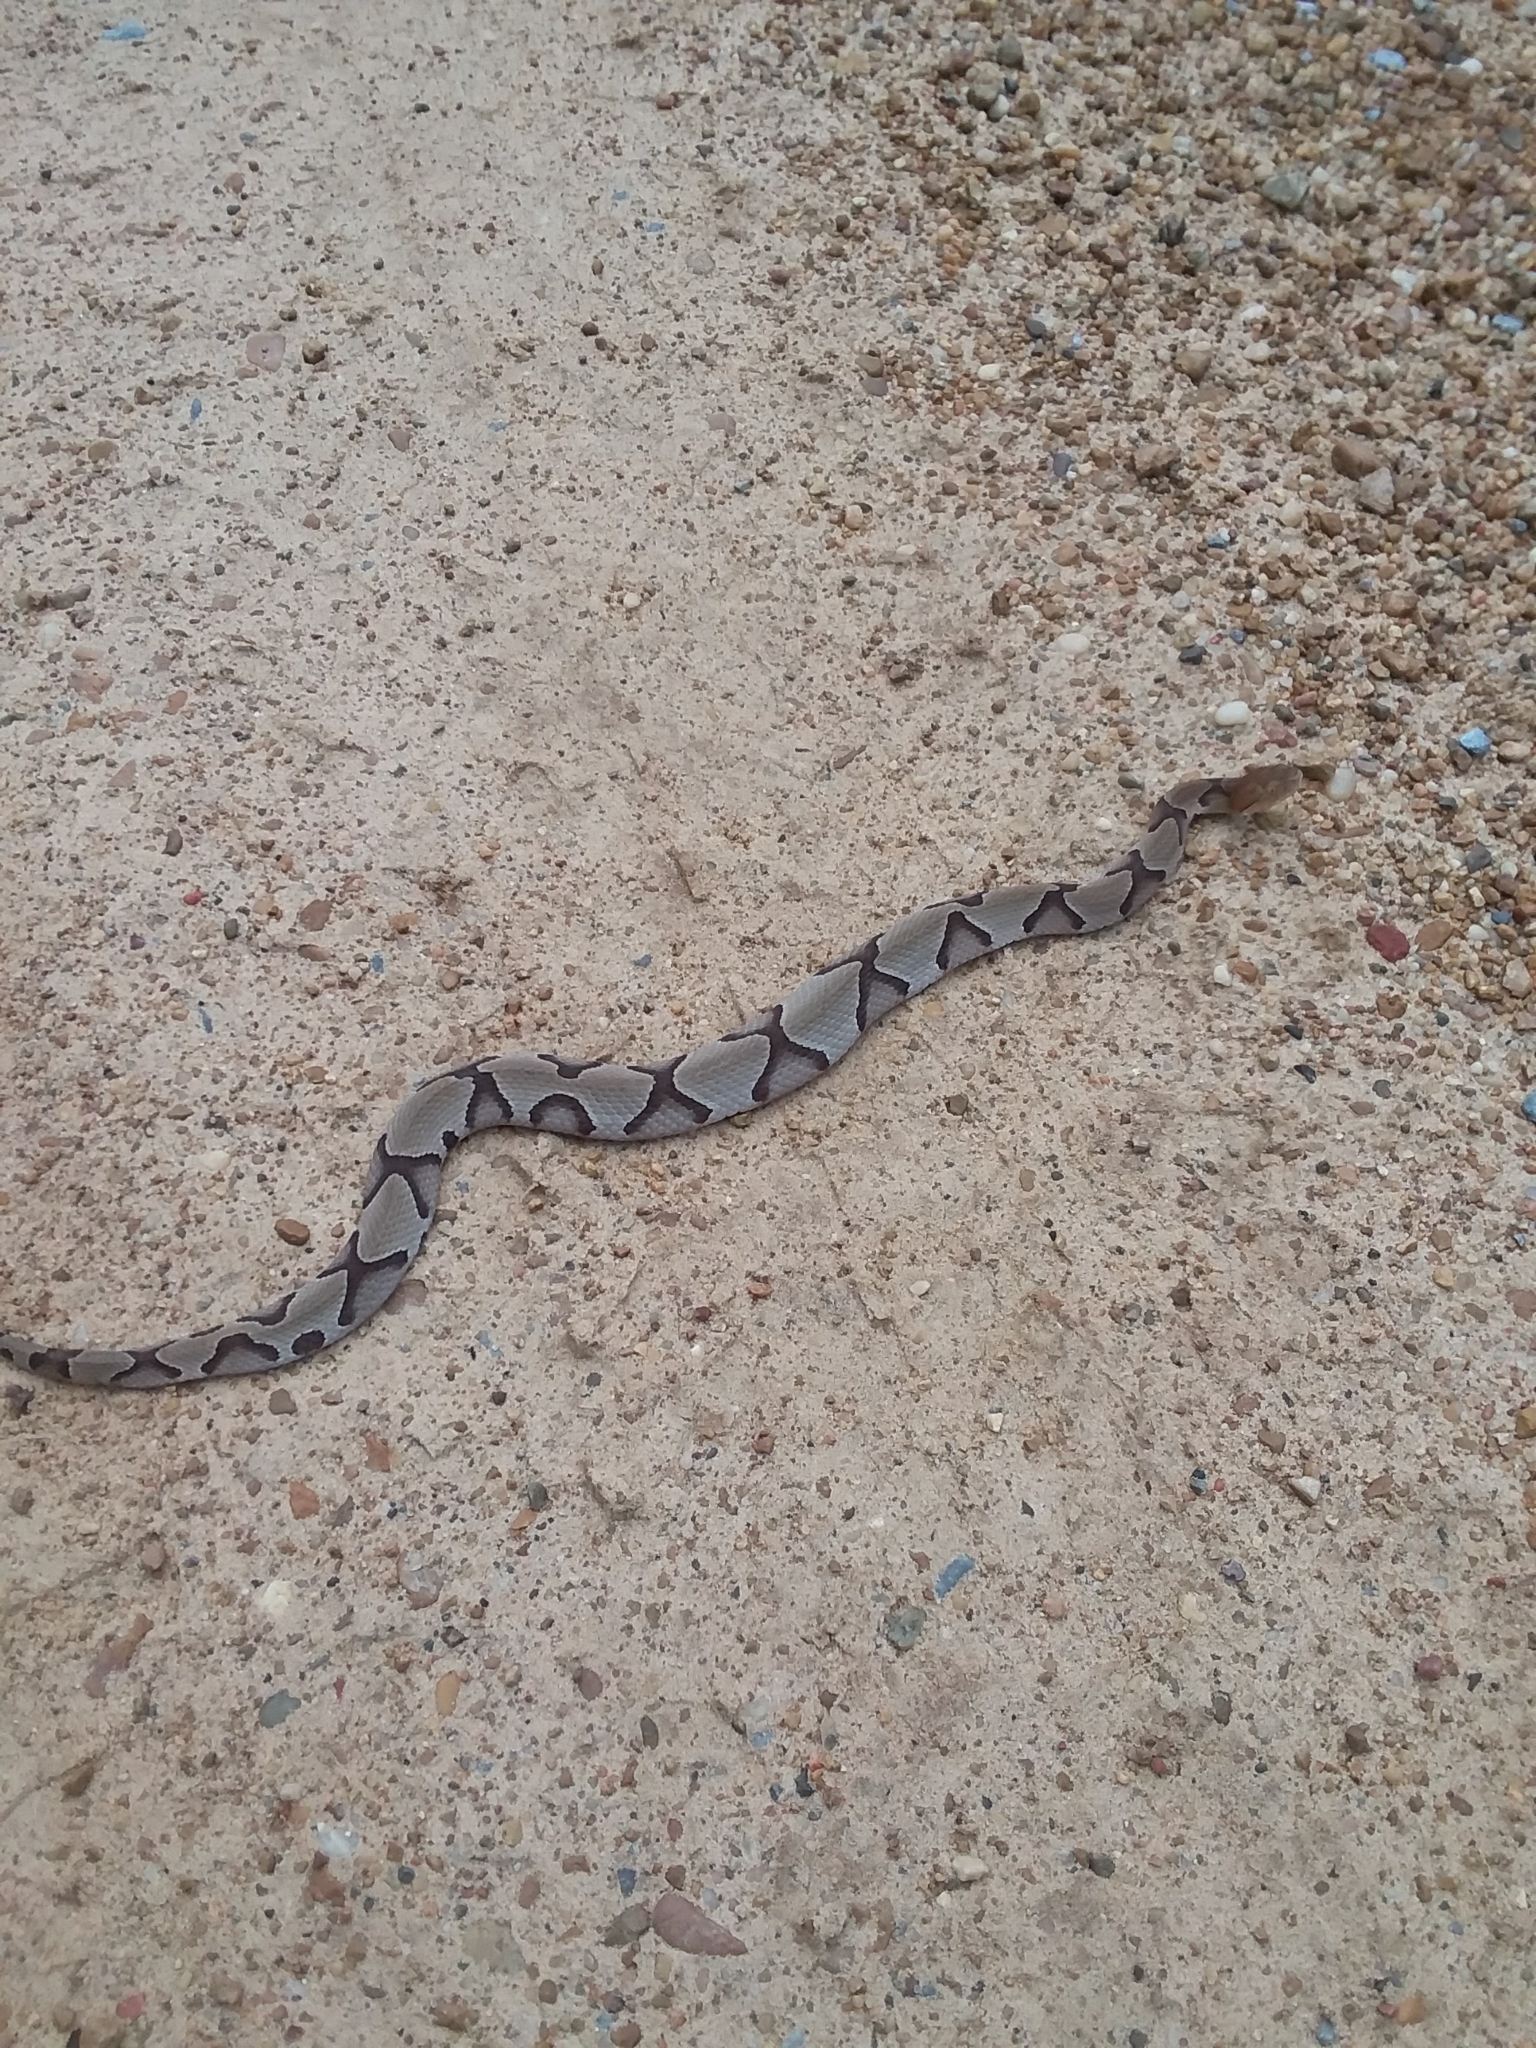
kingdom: Animalia
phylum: Chordata
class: Squamata
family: Viperidae
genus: Agkistrodon
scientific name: Agkistrodon contortrix
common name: Northern copperhead
